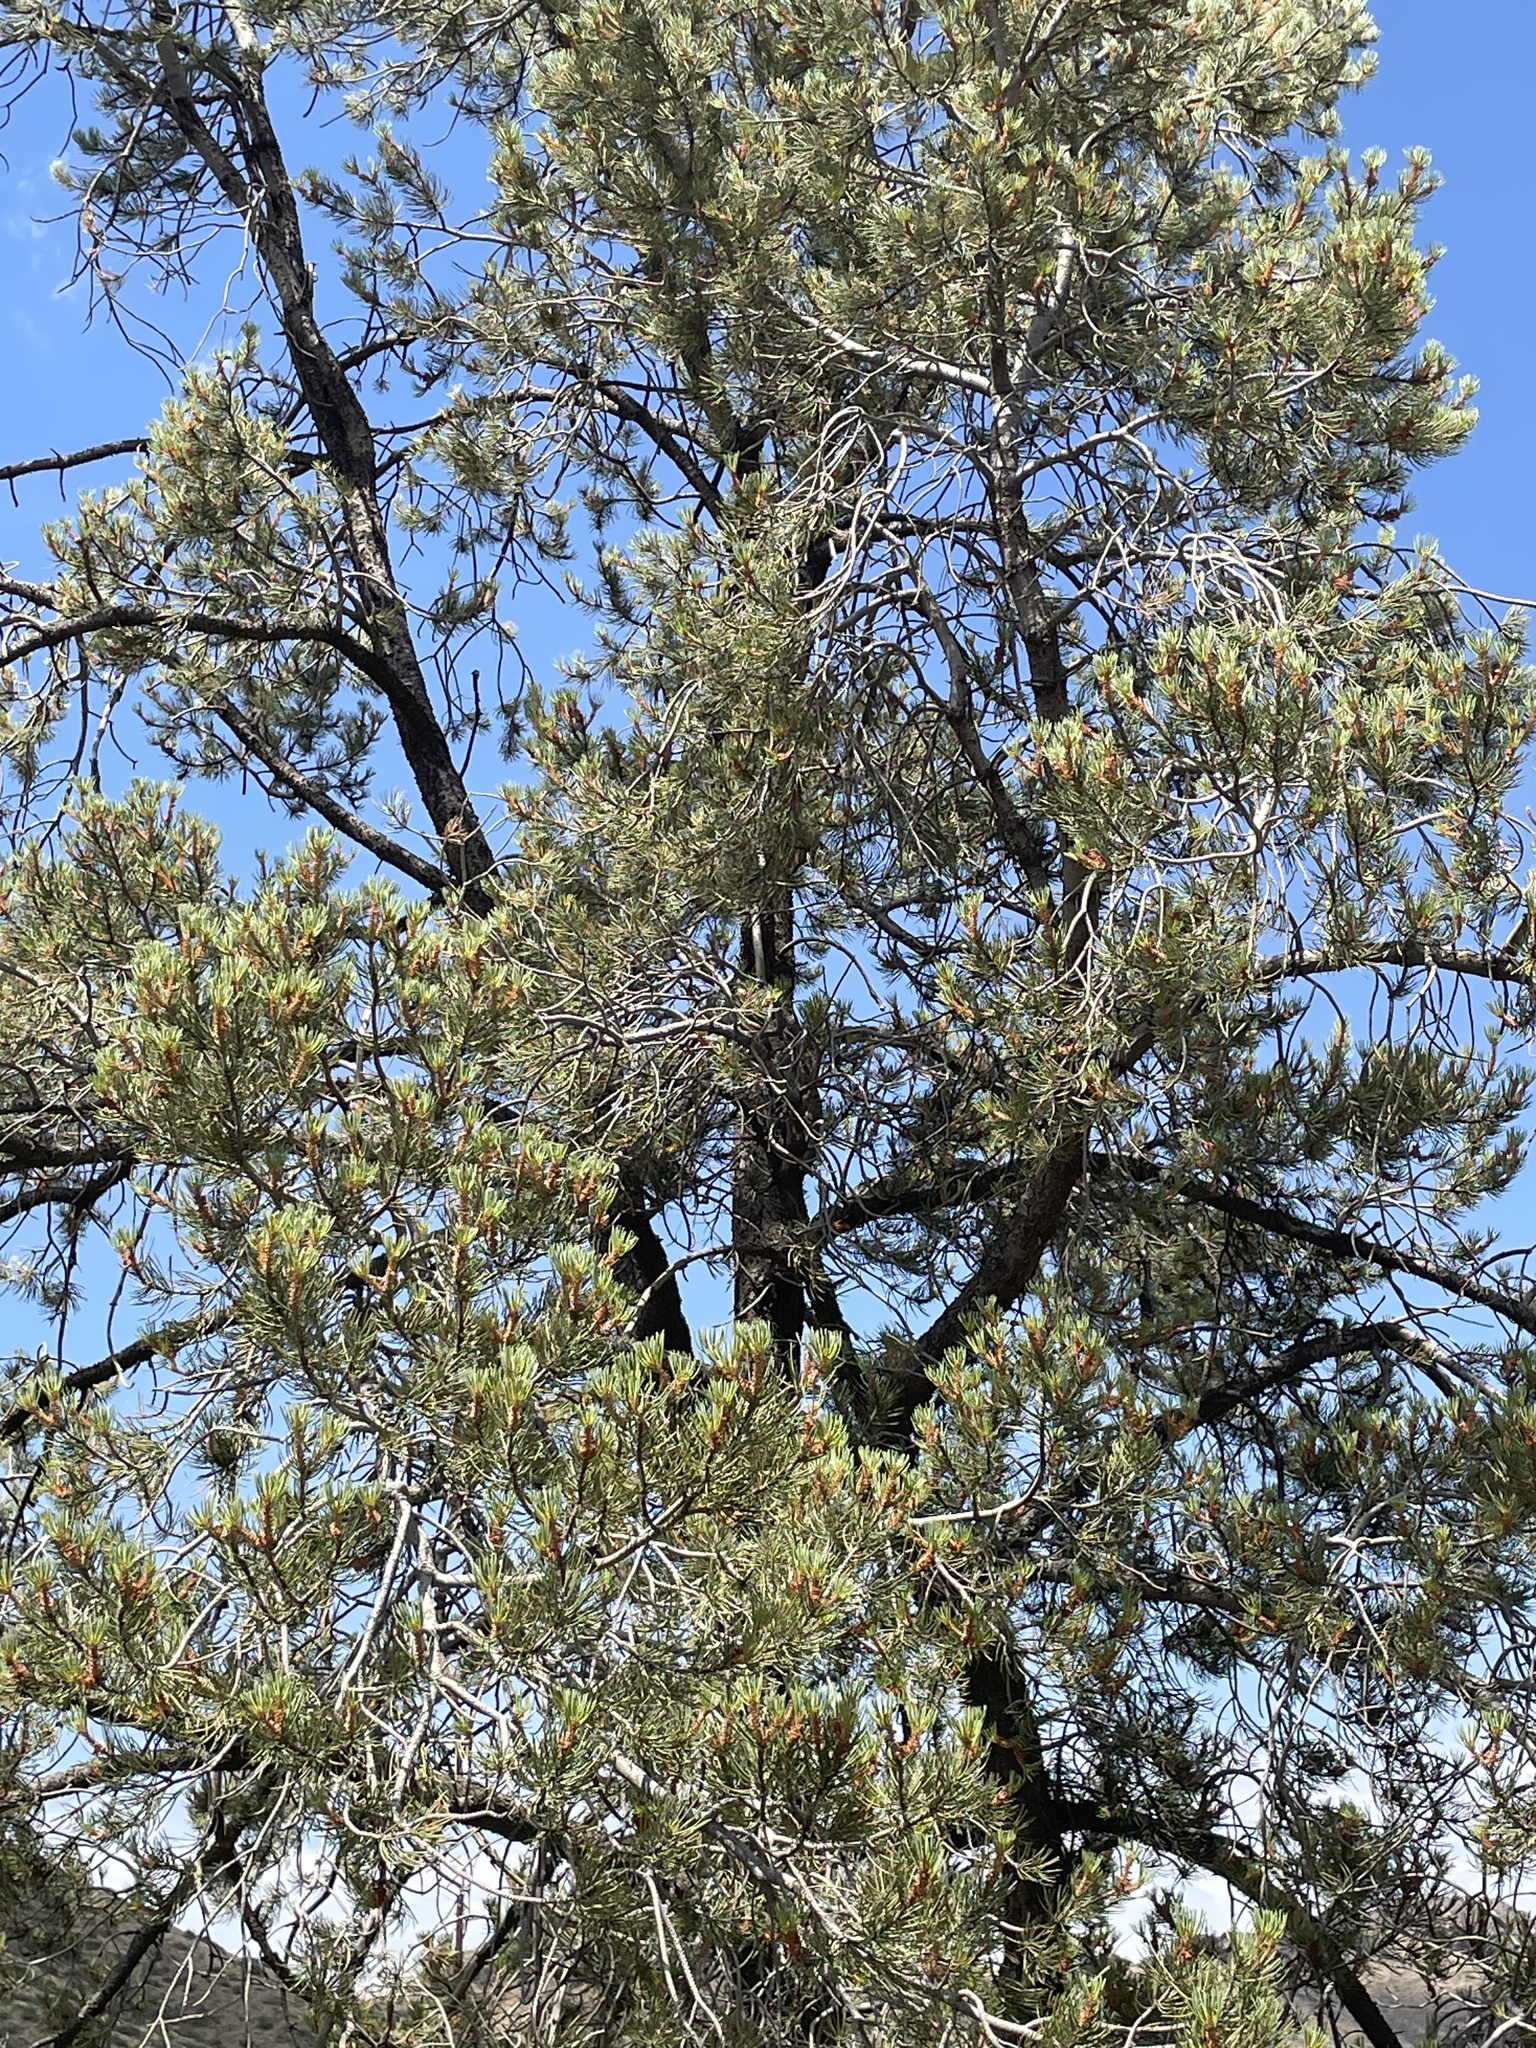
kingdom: Plantae
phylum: Tracheophyta
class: Pinopsida
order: Pinales
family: Pinaceae
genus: Pinus
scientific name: Pinus monophylla
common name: One-leaved nut pine
